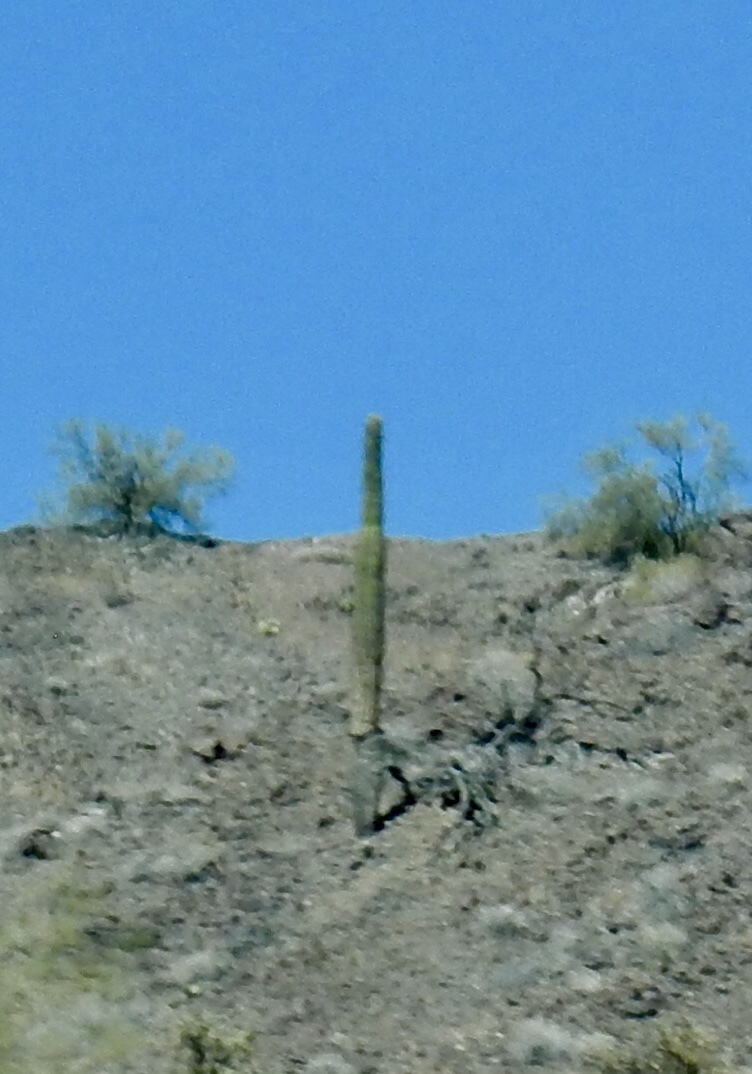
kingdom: Plantae
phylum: Tracheophyta
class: Magnoliopsida
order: Caryophyllales
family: Cactaceae
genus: Carnegiea
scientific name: Carnegiea gigantea
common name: Saguaro
